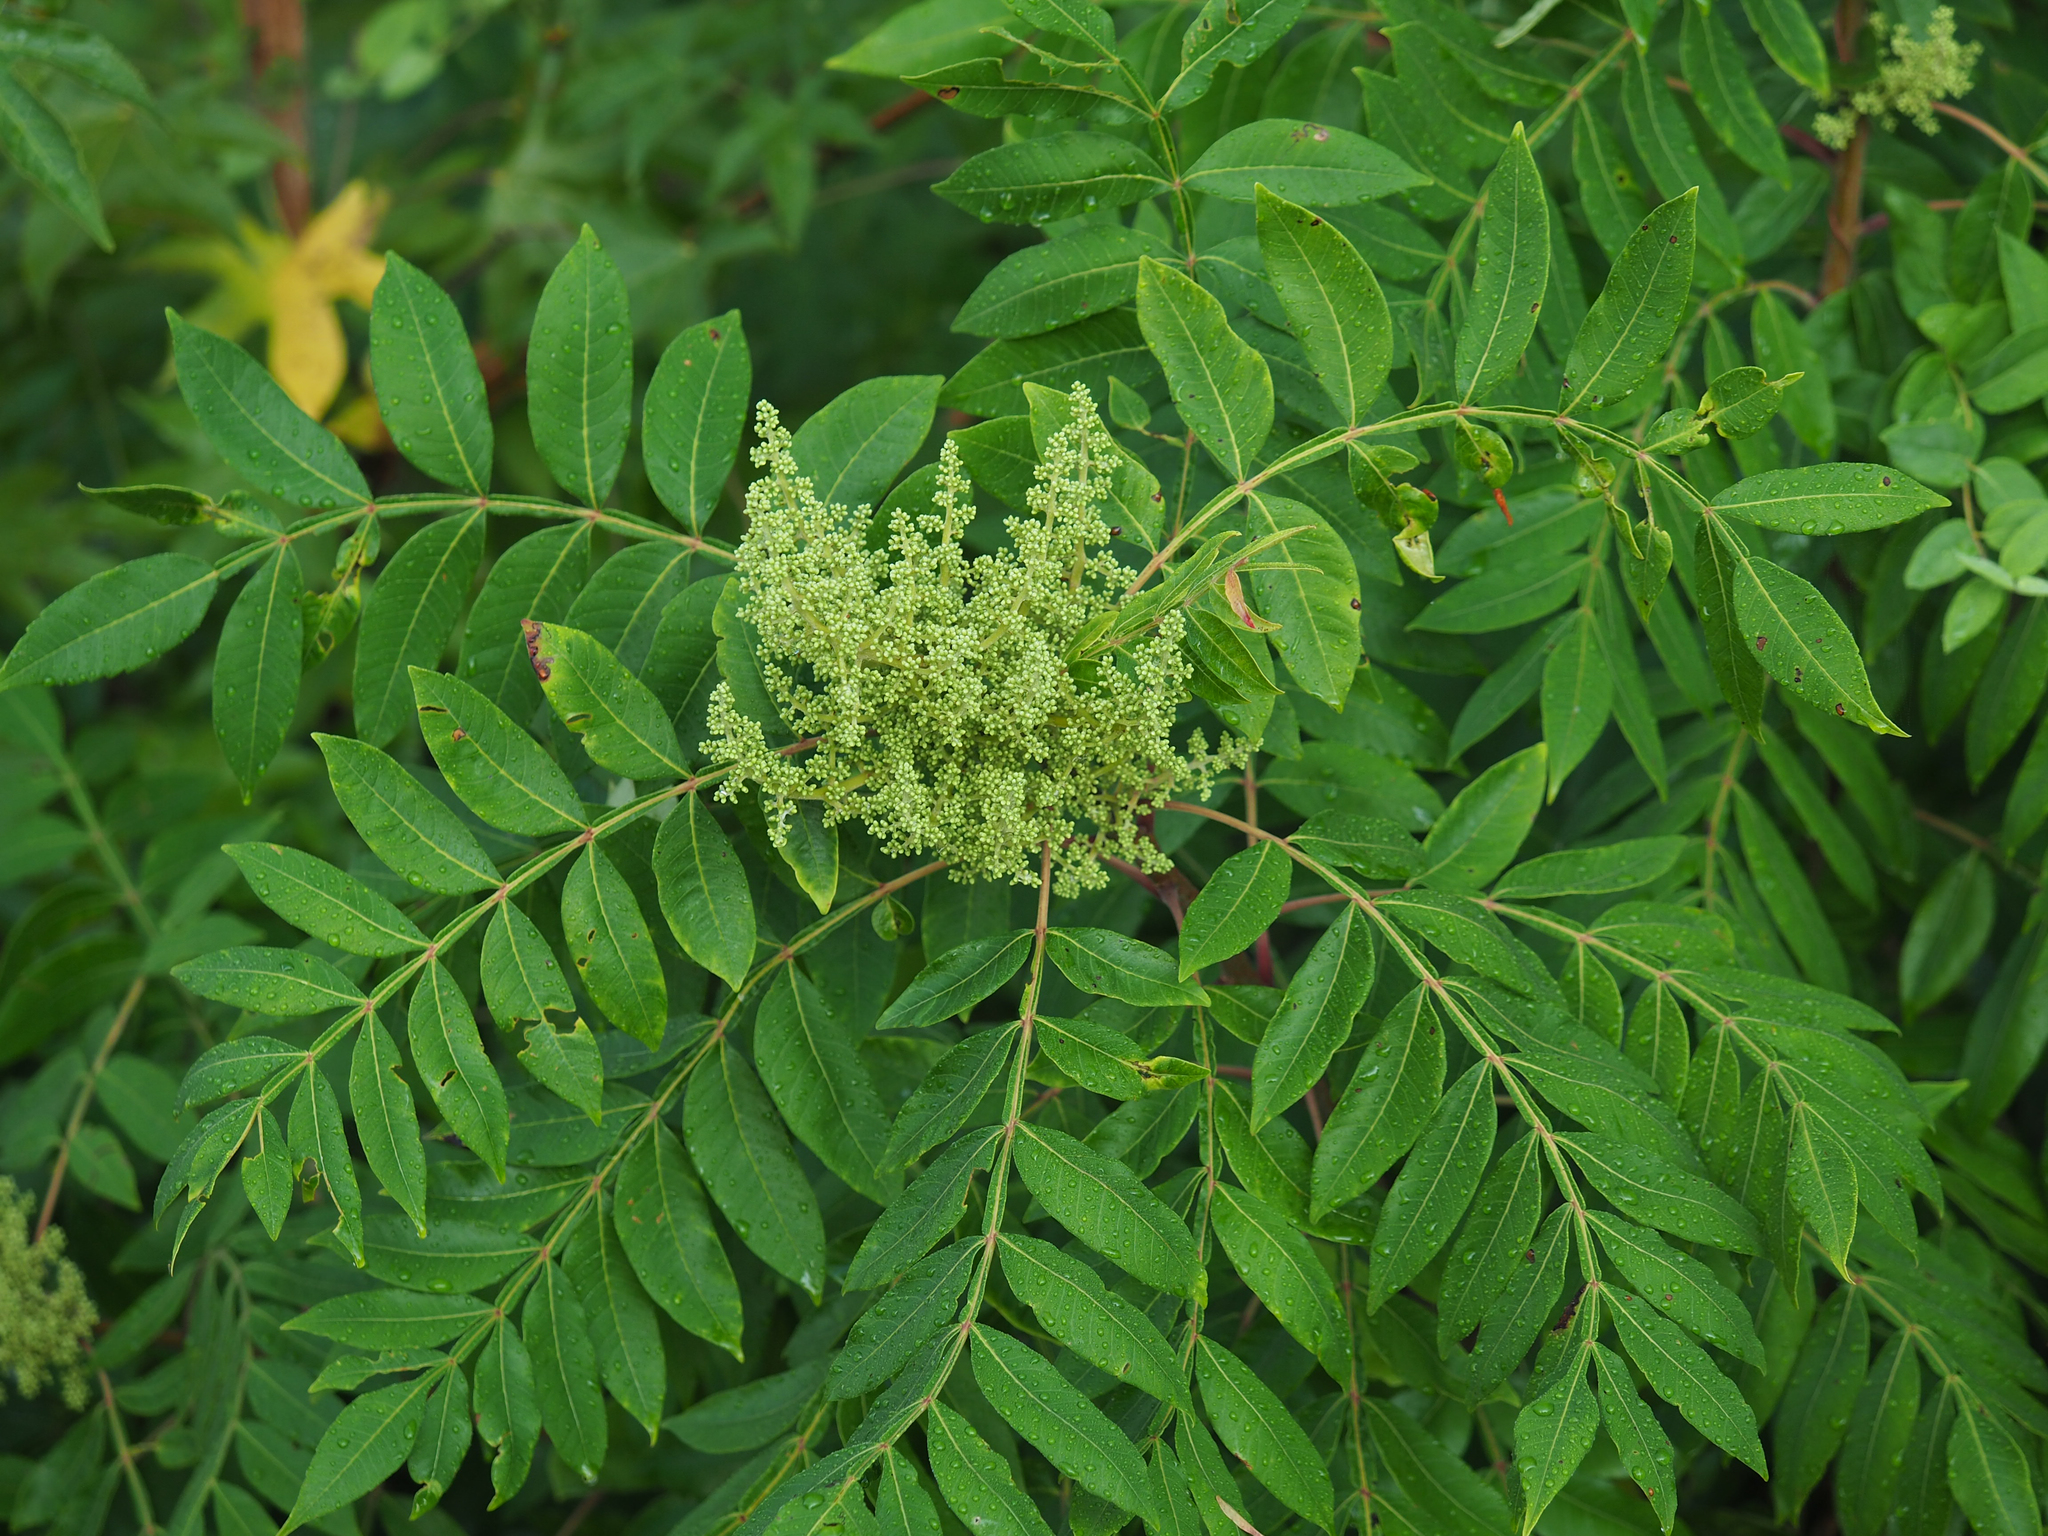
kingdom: Plantae
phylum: Tracheophyta
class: Magnoliopsida
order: Sapindales
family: Anacardiaceae
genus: Rhus
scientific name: Rhus copallina
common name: Shining sumac
